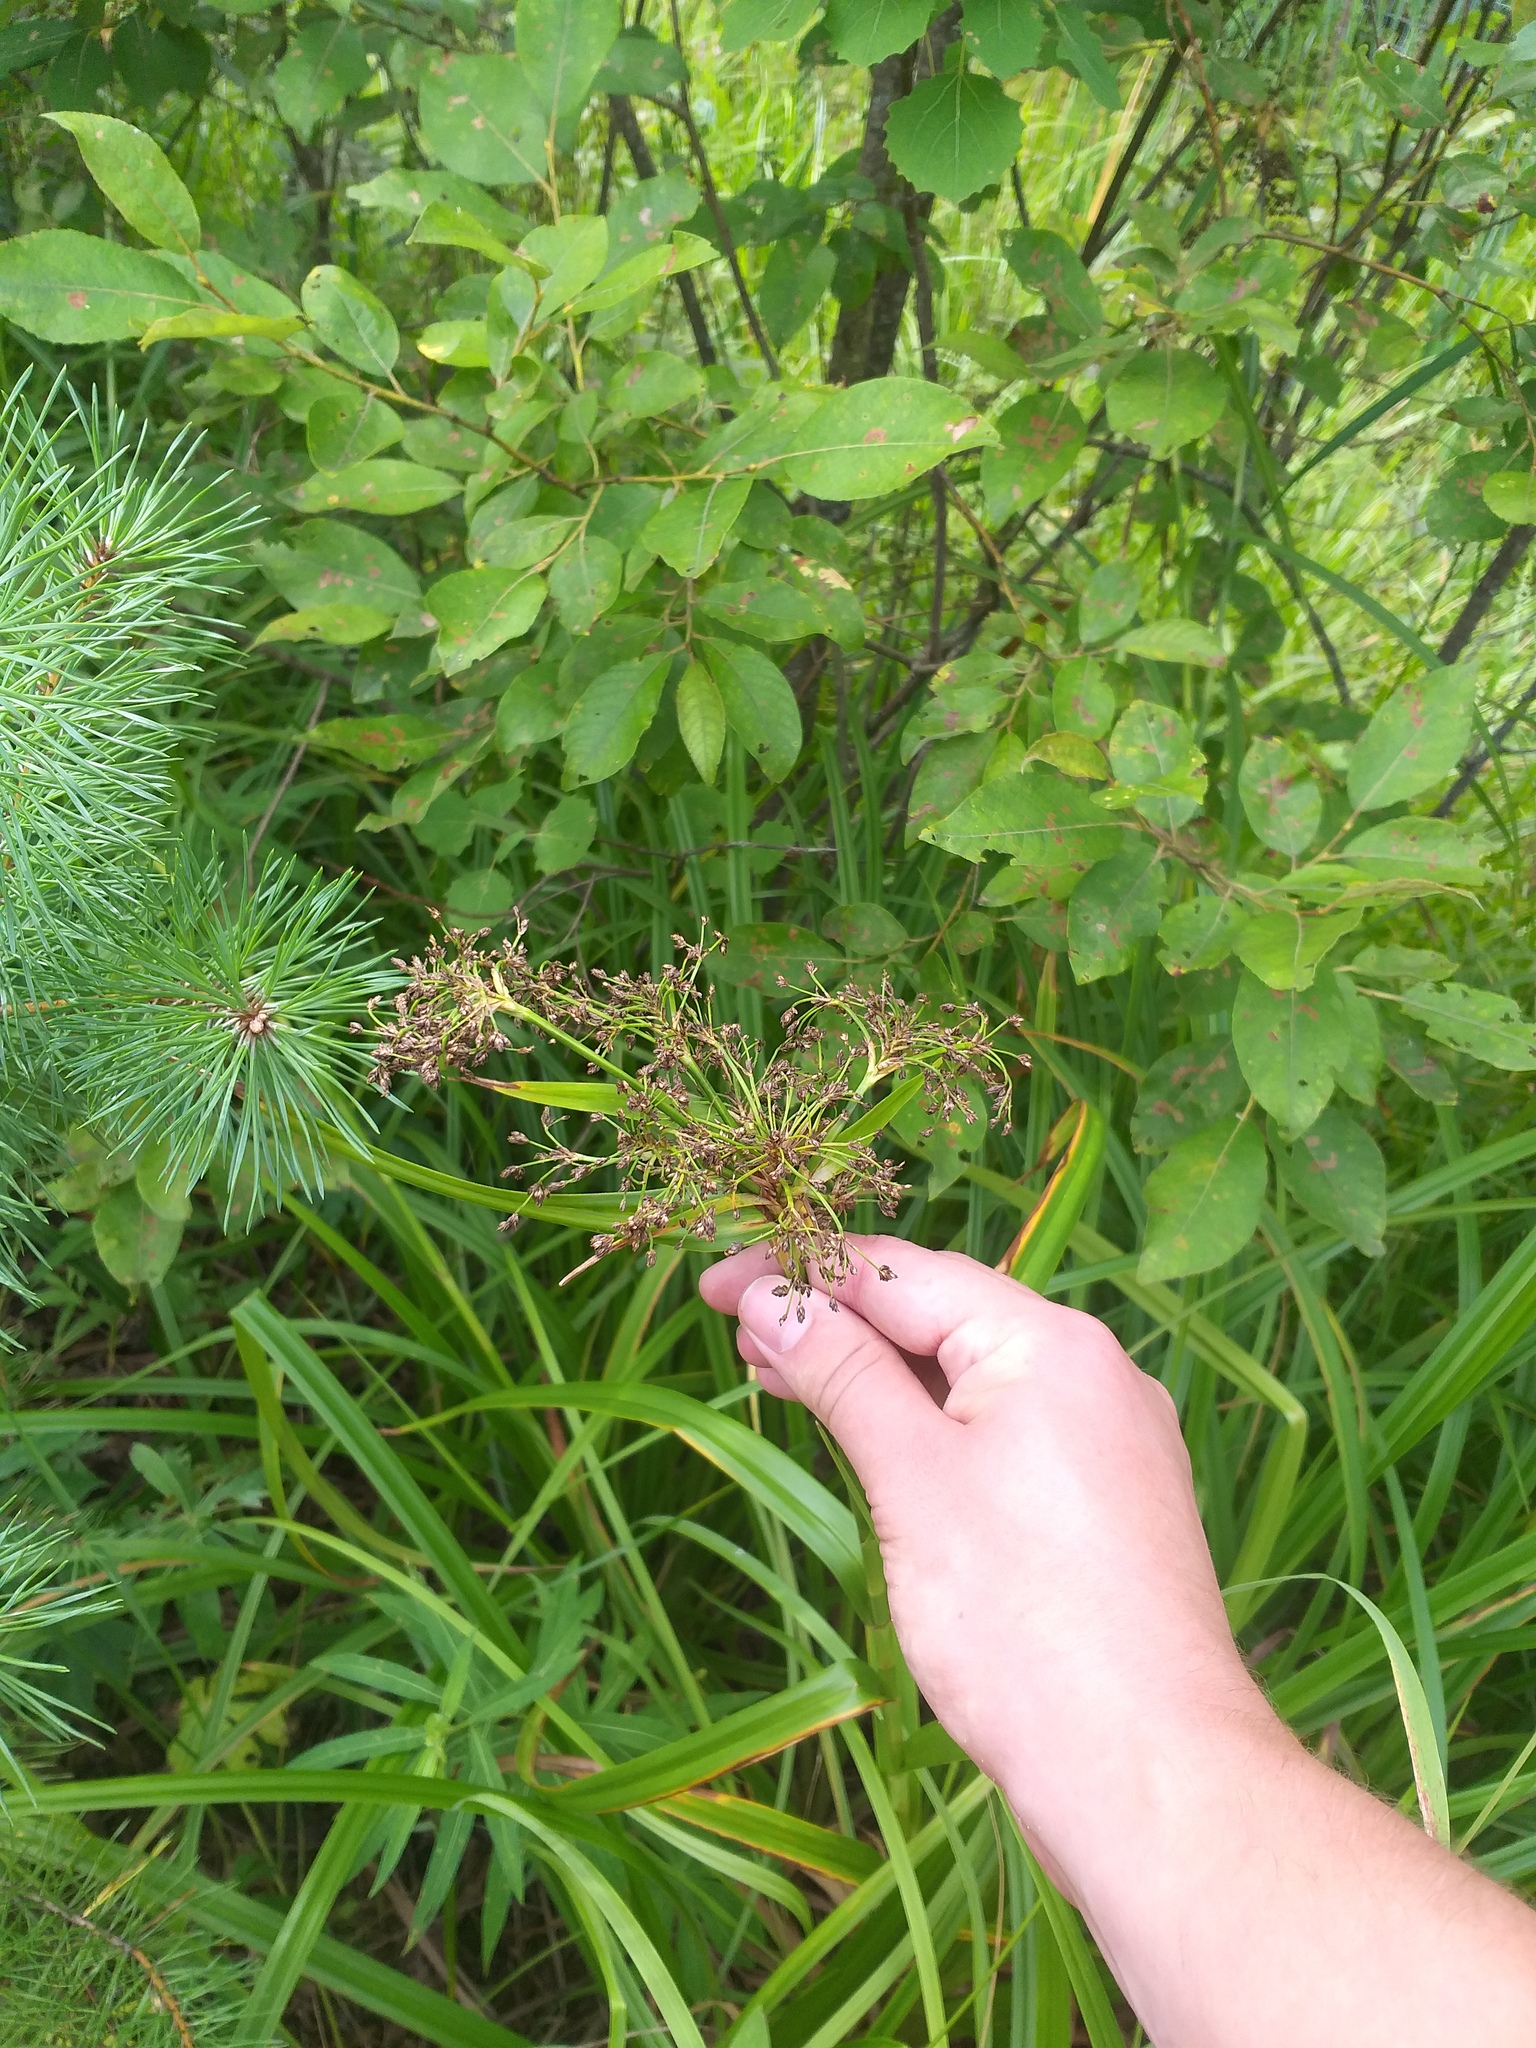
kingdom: Plantae
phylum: Tracheophyta
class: Liliopsida
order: Poales
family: Cyperaceae
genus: Scirpus
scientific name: Scirpus sylvaticus
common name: Wood club-rush
